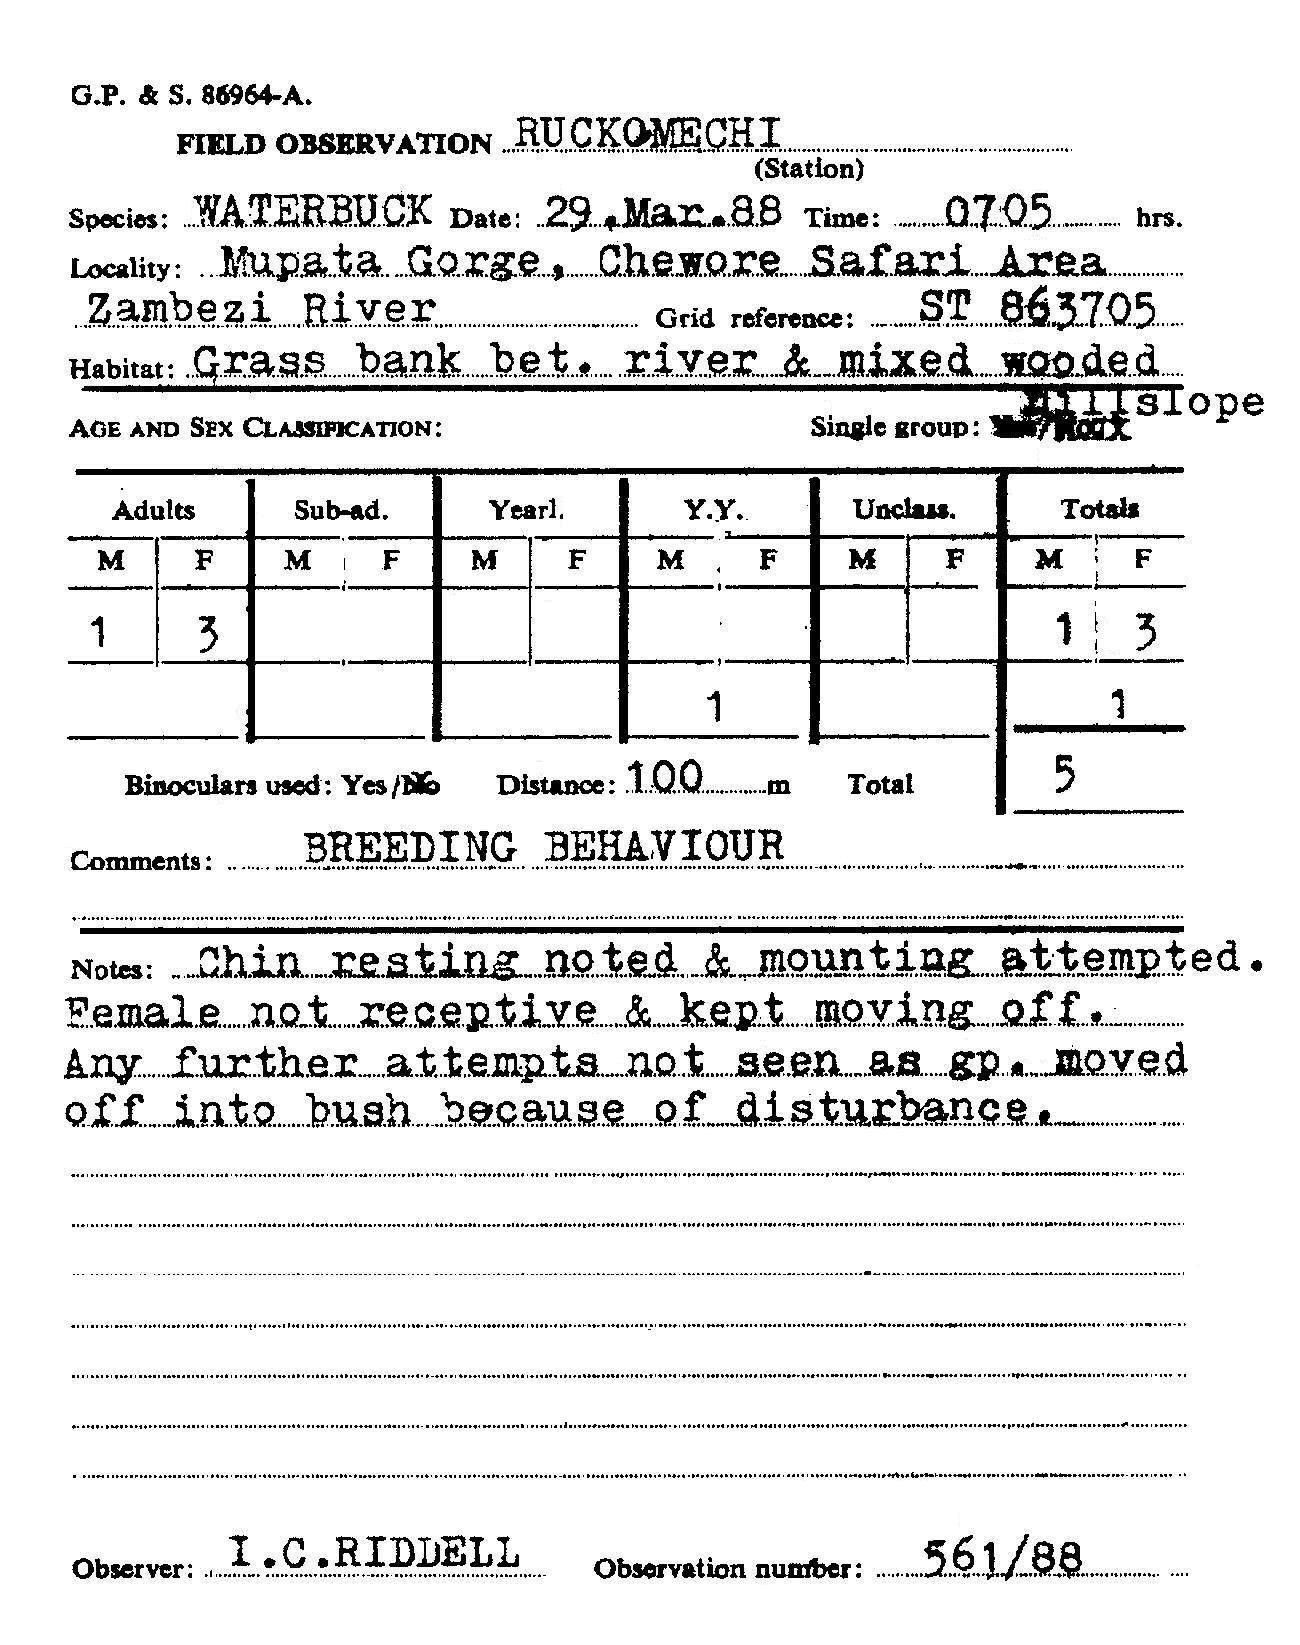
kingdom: Animalia
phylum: Chordata
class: Mammalia
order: Artiodactyla
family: Bovidae
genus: Kobus
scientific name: Kobus ellipsiprymnus
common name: Waterbuck
